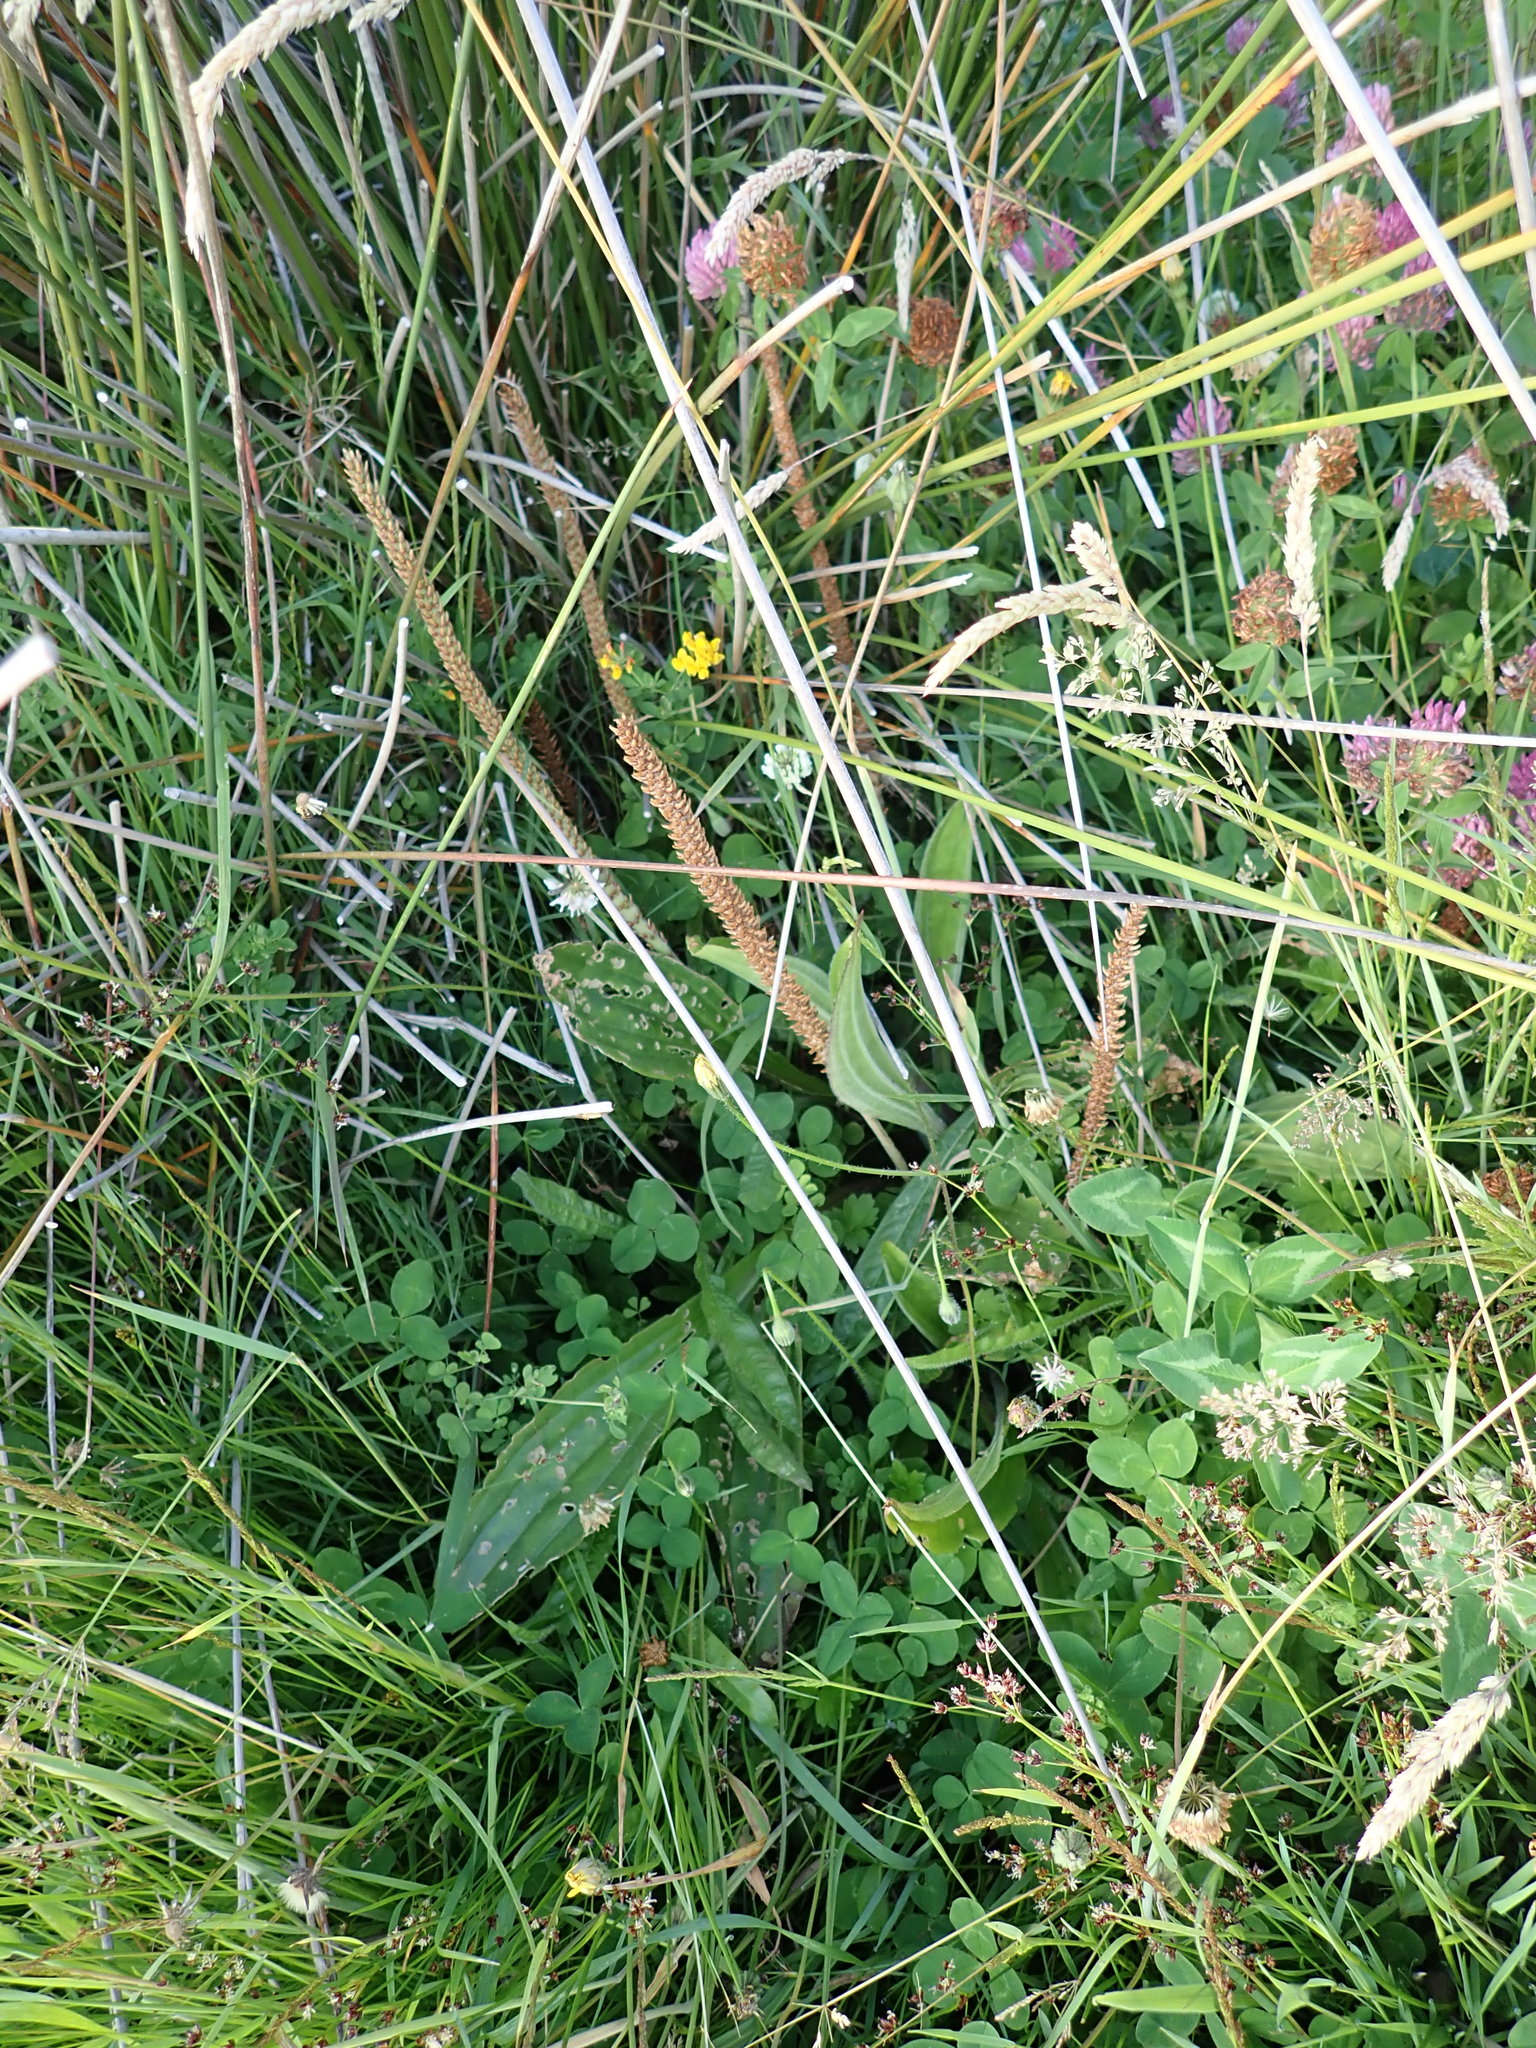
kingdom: Plantae
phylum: Tracheophyta
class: Magnoliopsida
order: Lamiales
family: Plantaginaceae
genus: Plantago
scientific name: Plantago major
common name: Common plantain
